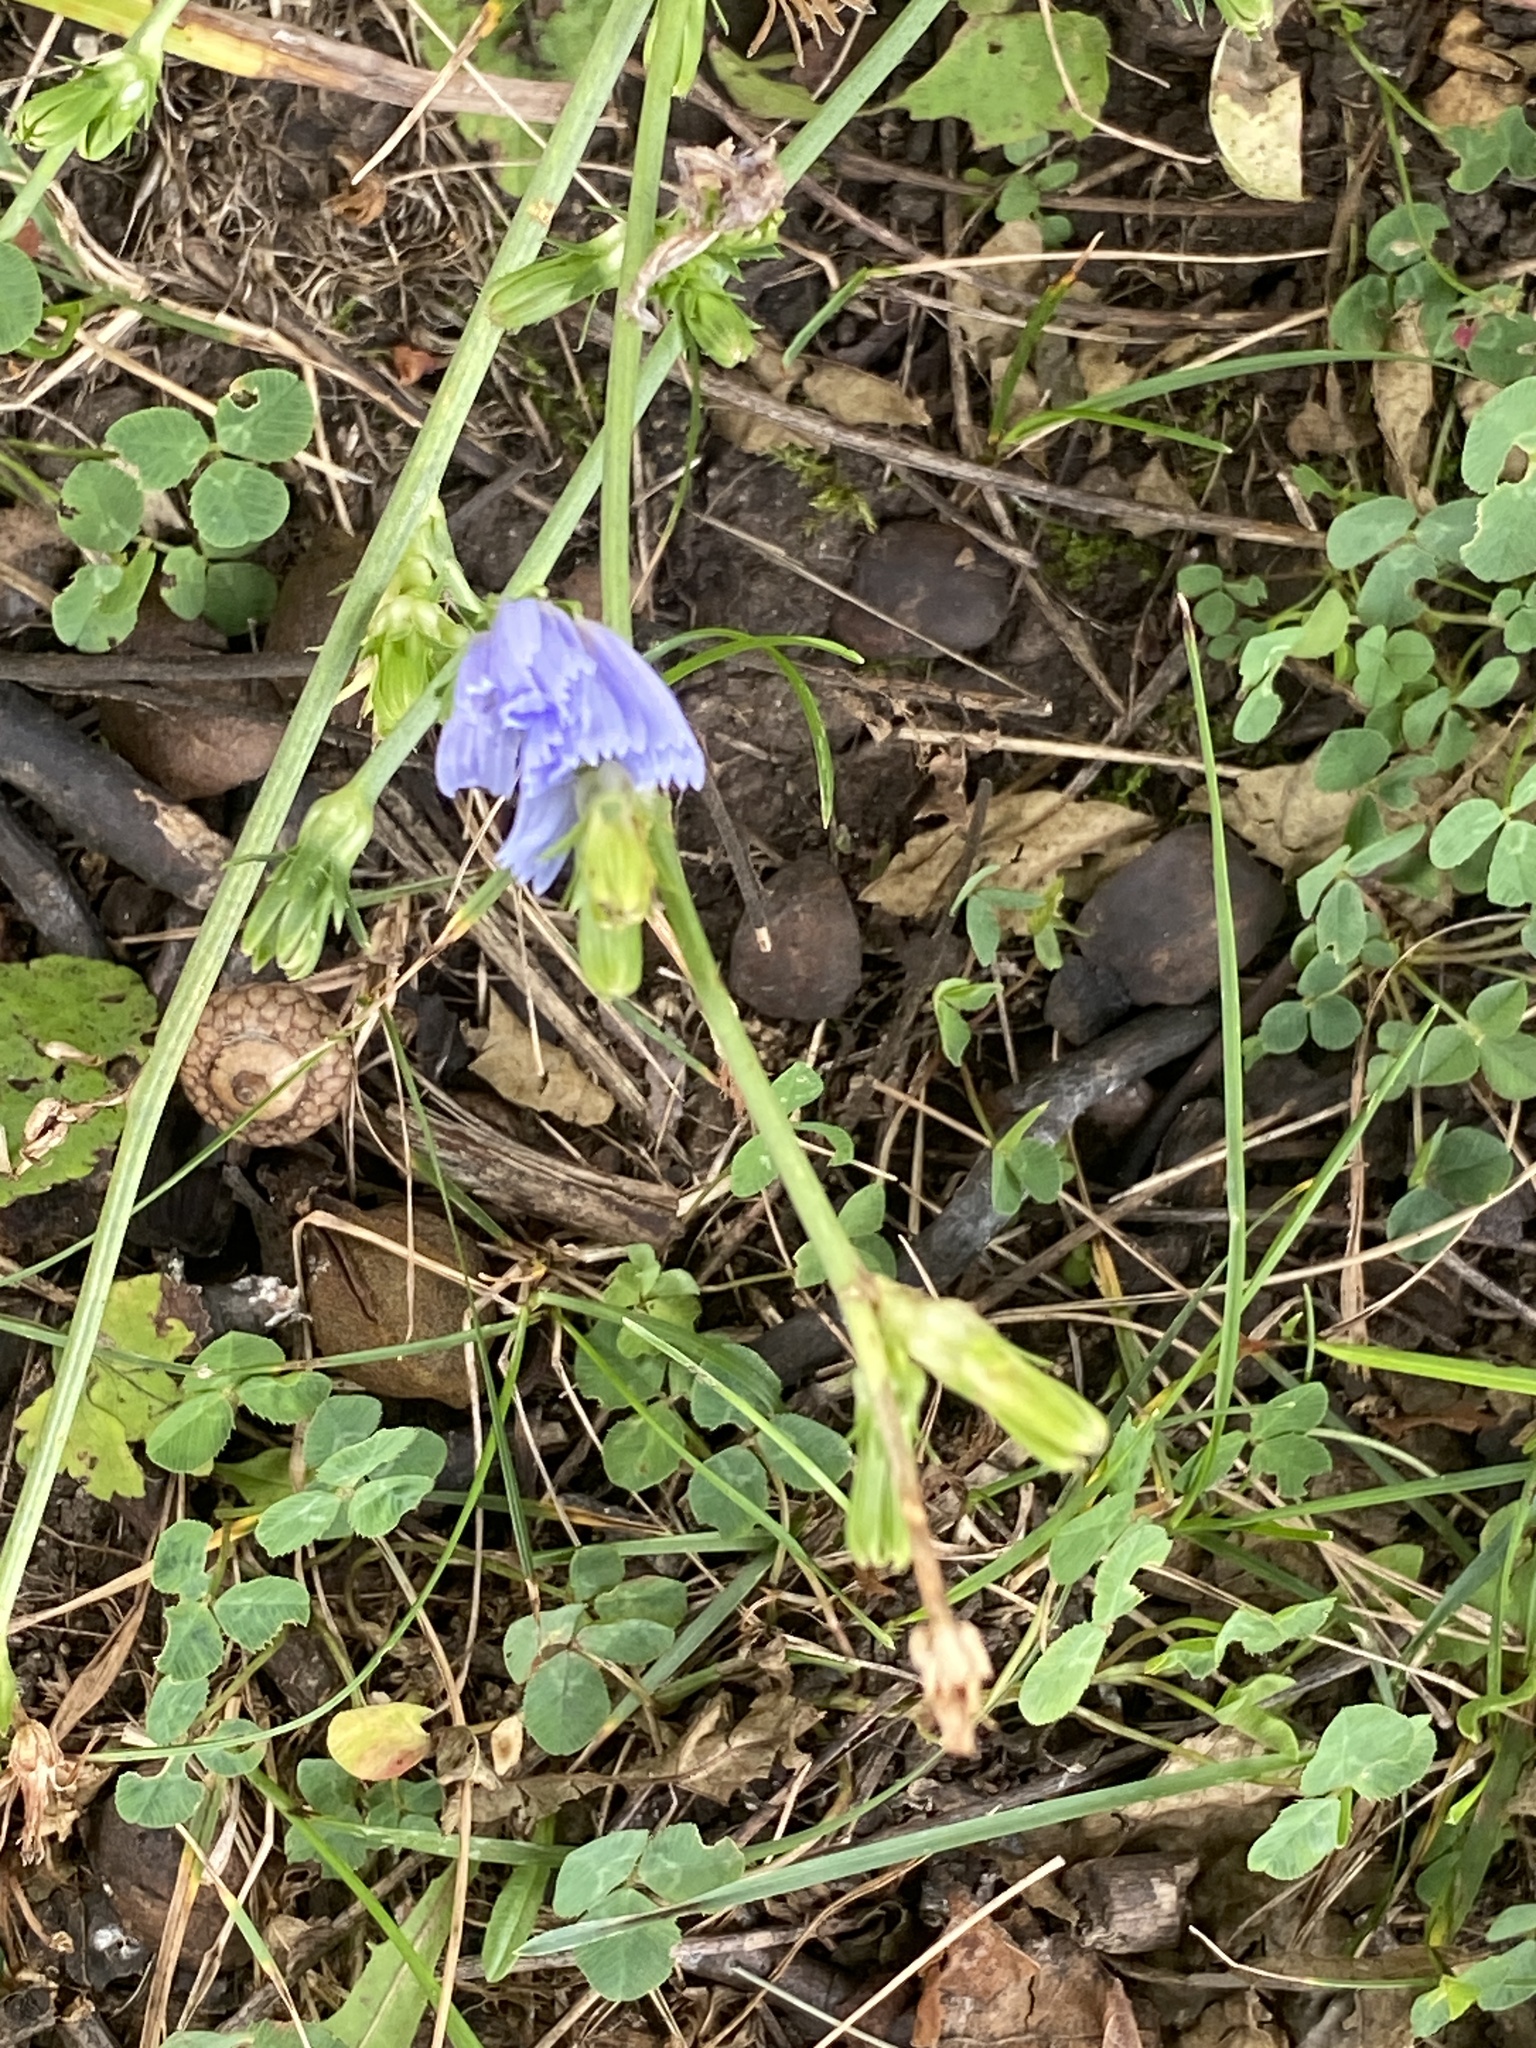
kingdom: Plantae
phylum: Tracheophyta
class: Magnoliopsida
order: Asterales
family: Asteraceae
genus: Cichorium
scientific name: Cichorium intybus
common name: Chicory
